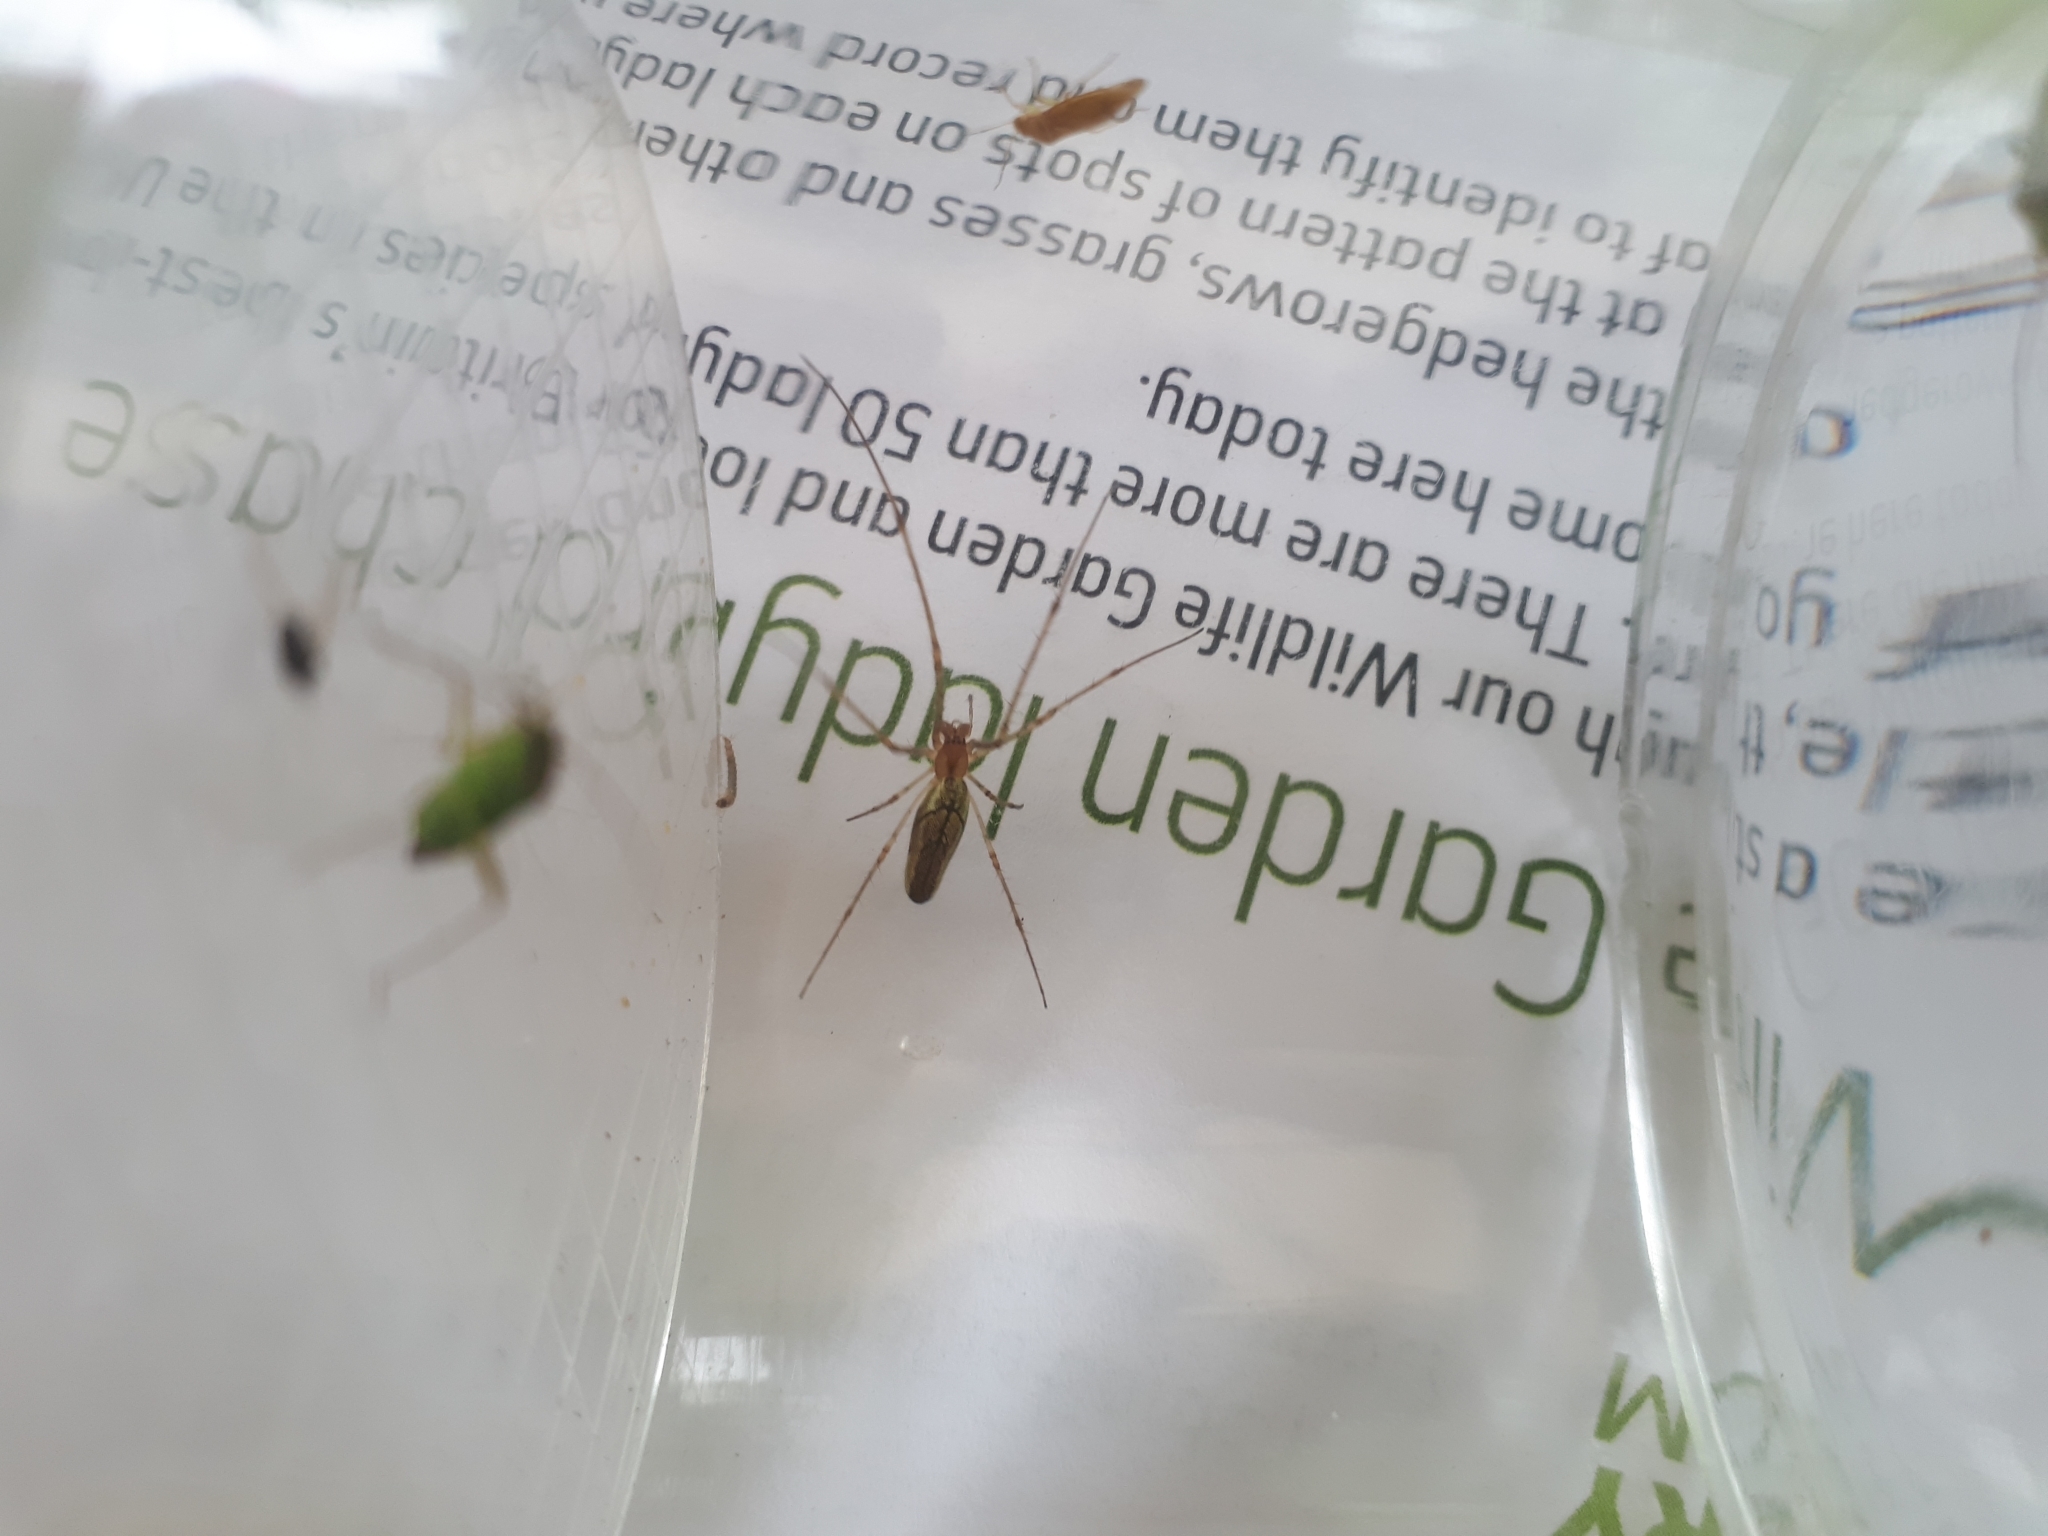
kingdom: Animalia
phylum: Arthropoda
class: Arachnida
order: Araneae
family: Tetragnathidae
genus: Tetragnatha
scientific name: Tetragnatha
